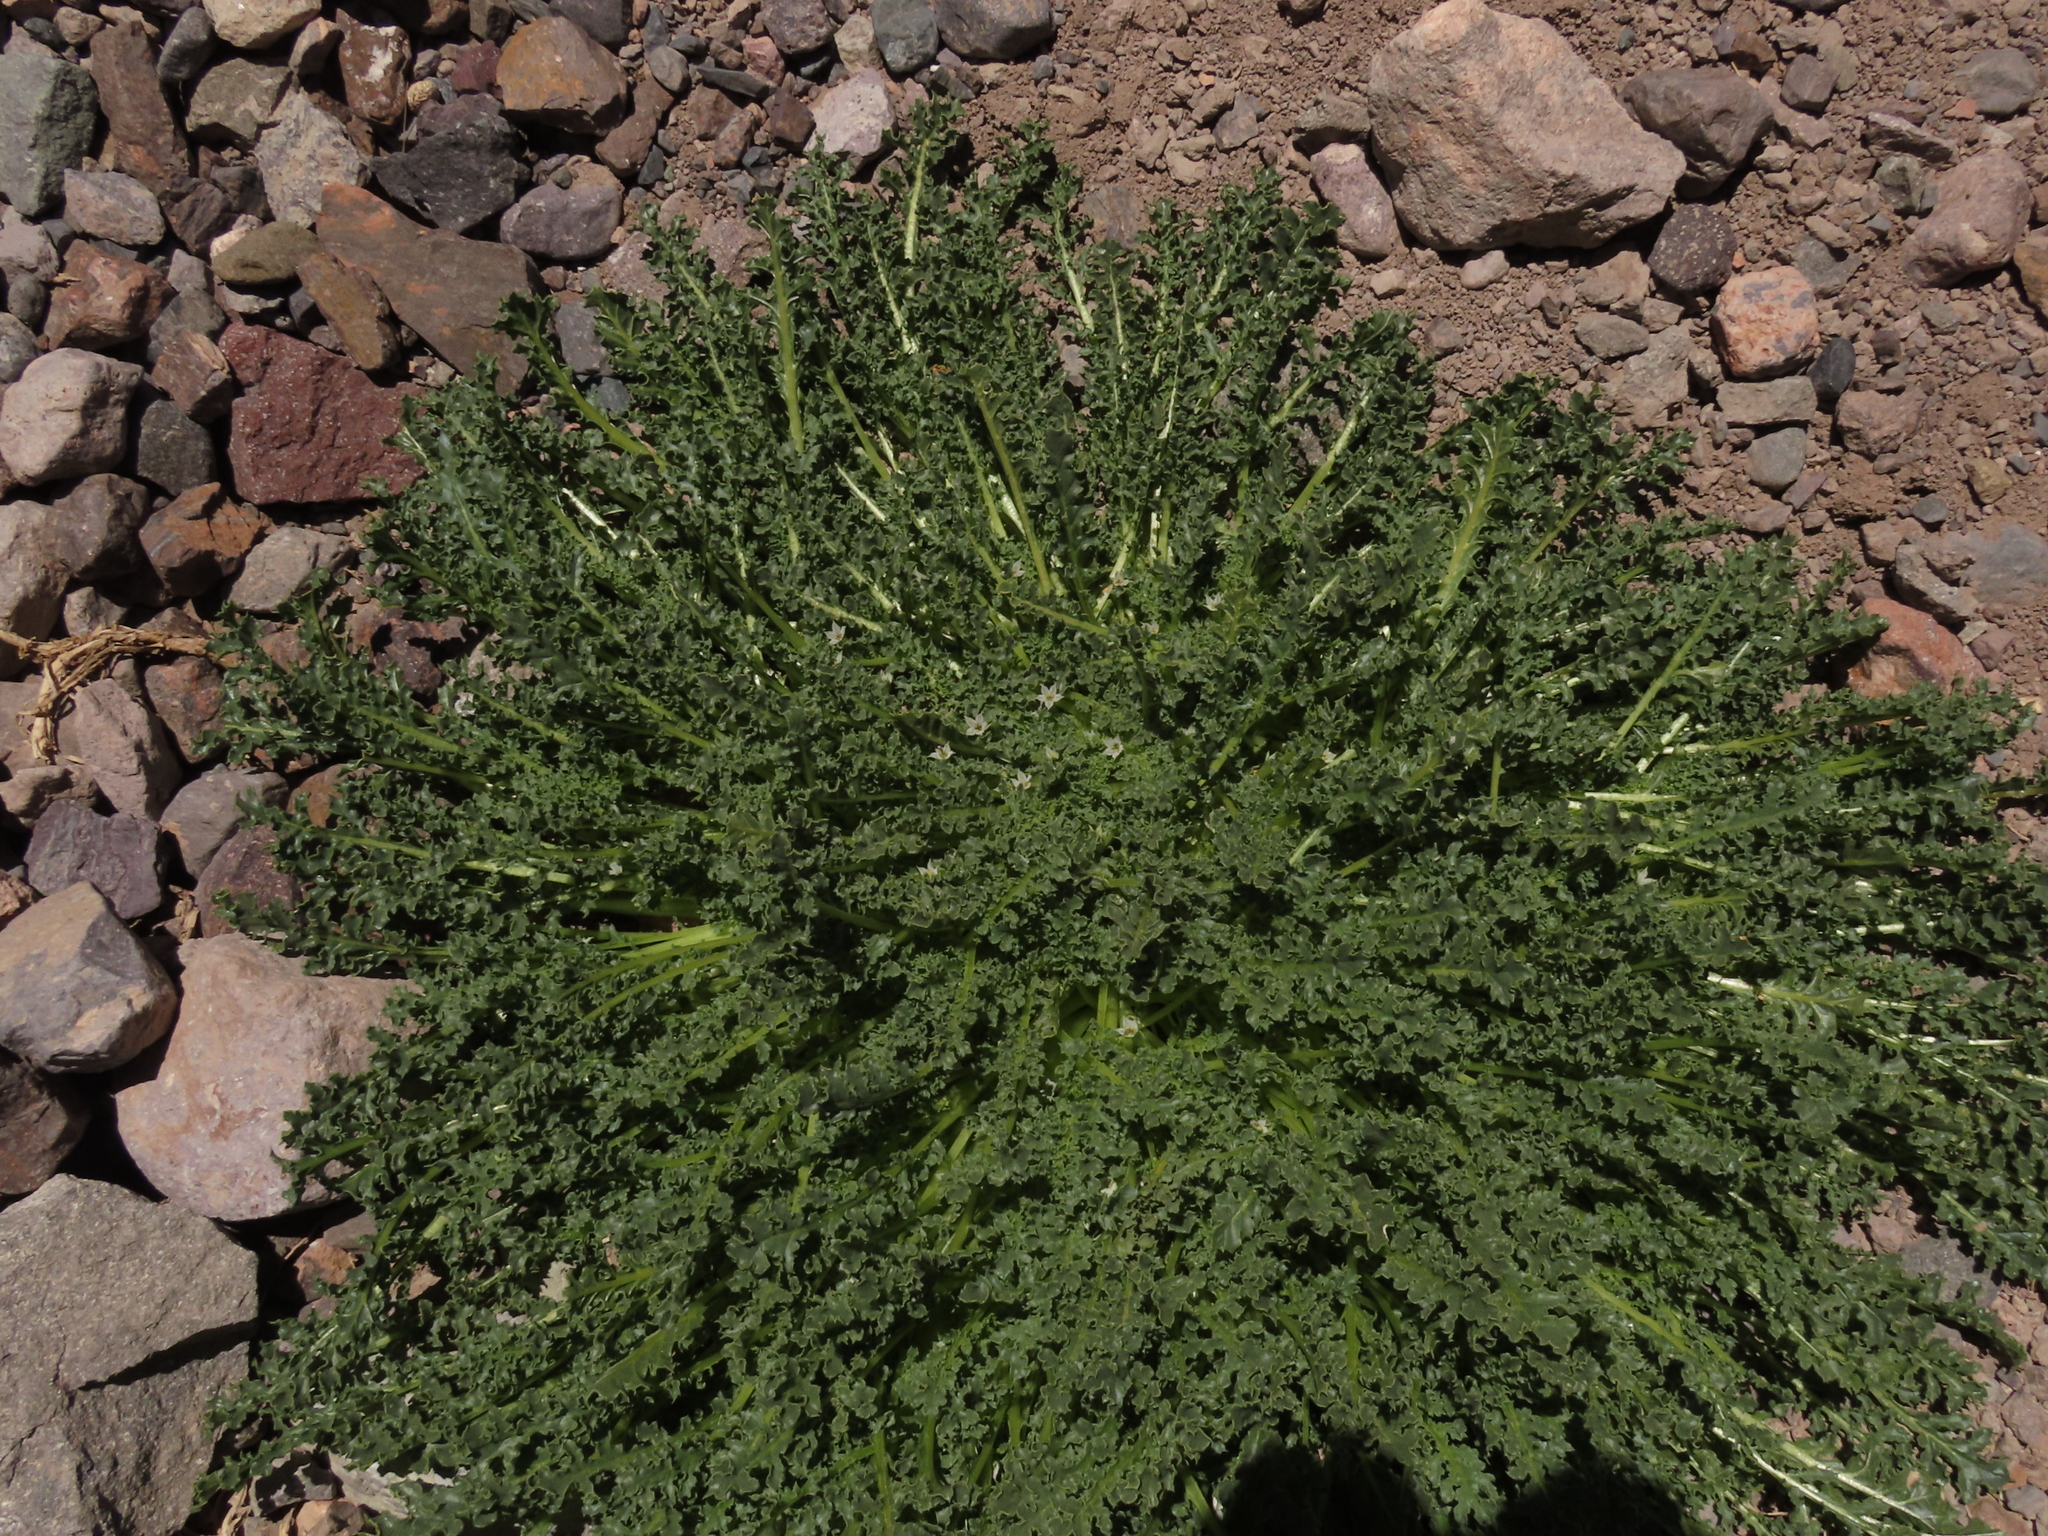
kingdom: Plantae
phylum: Tracheophyta
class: Magnoliopsida
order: Solanales
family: Solanaceae
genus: Jaborosa
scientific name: Jaborosa caulescens
